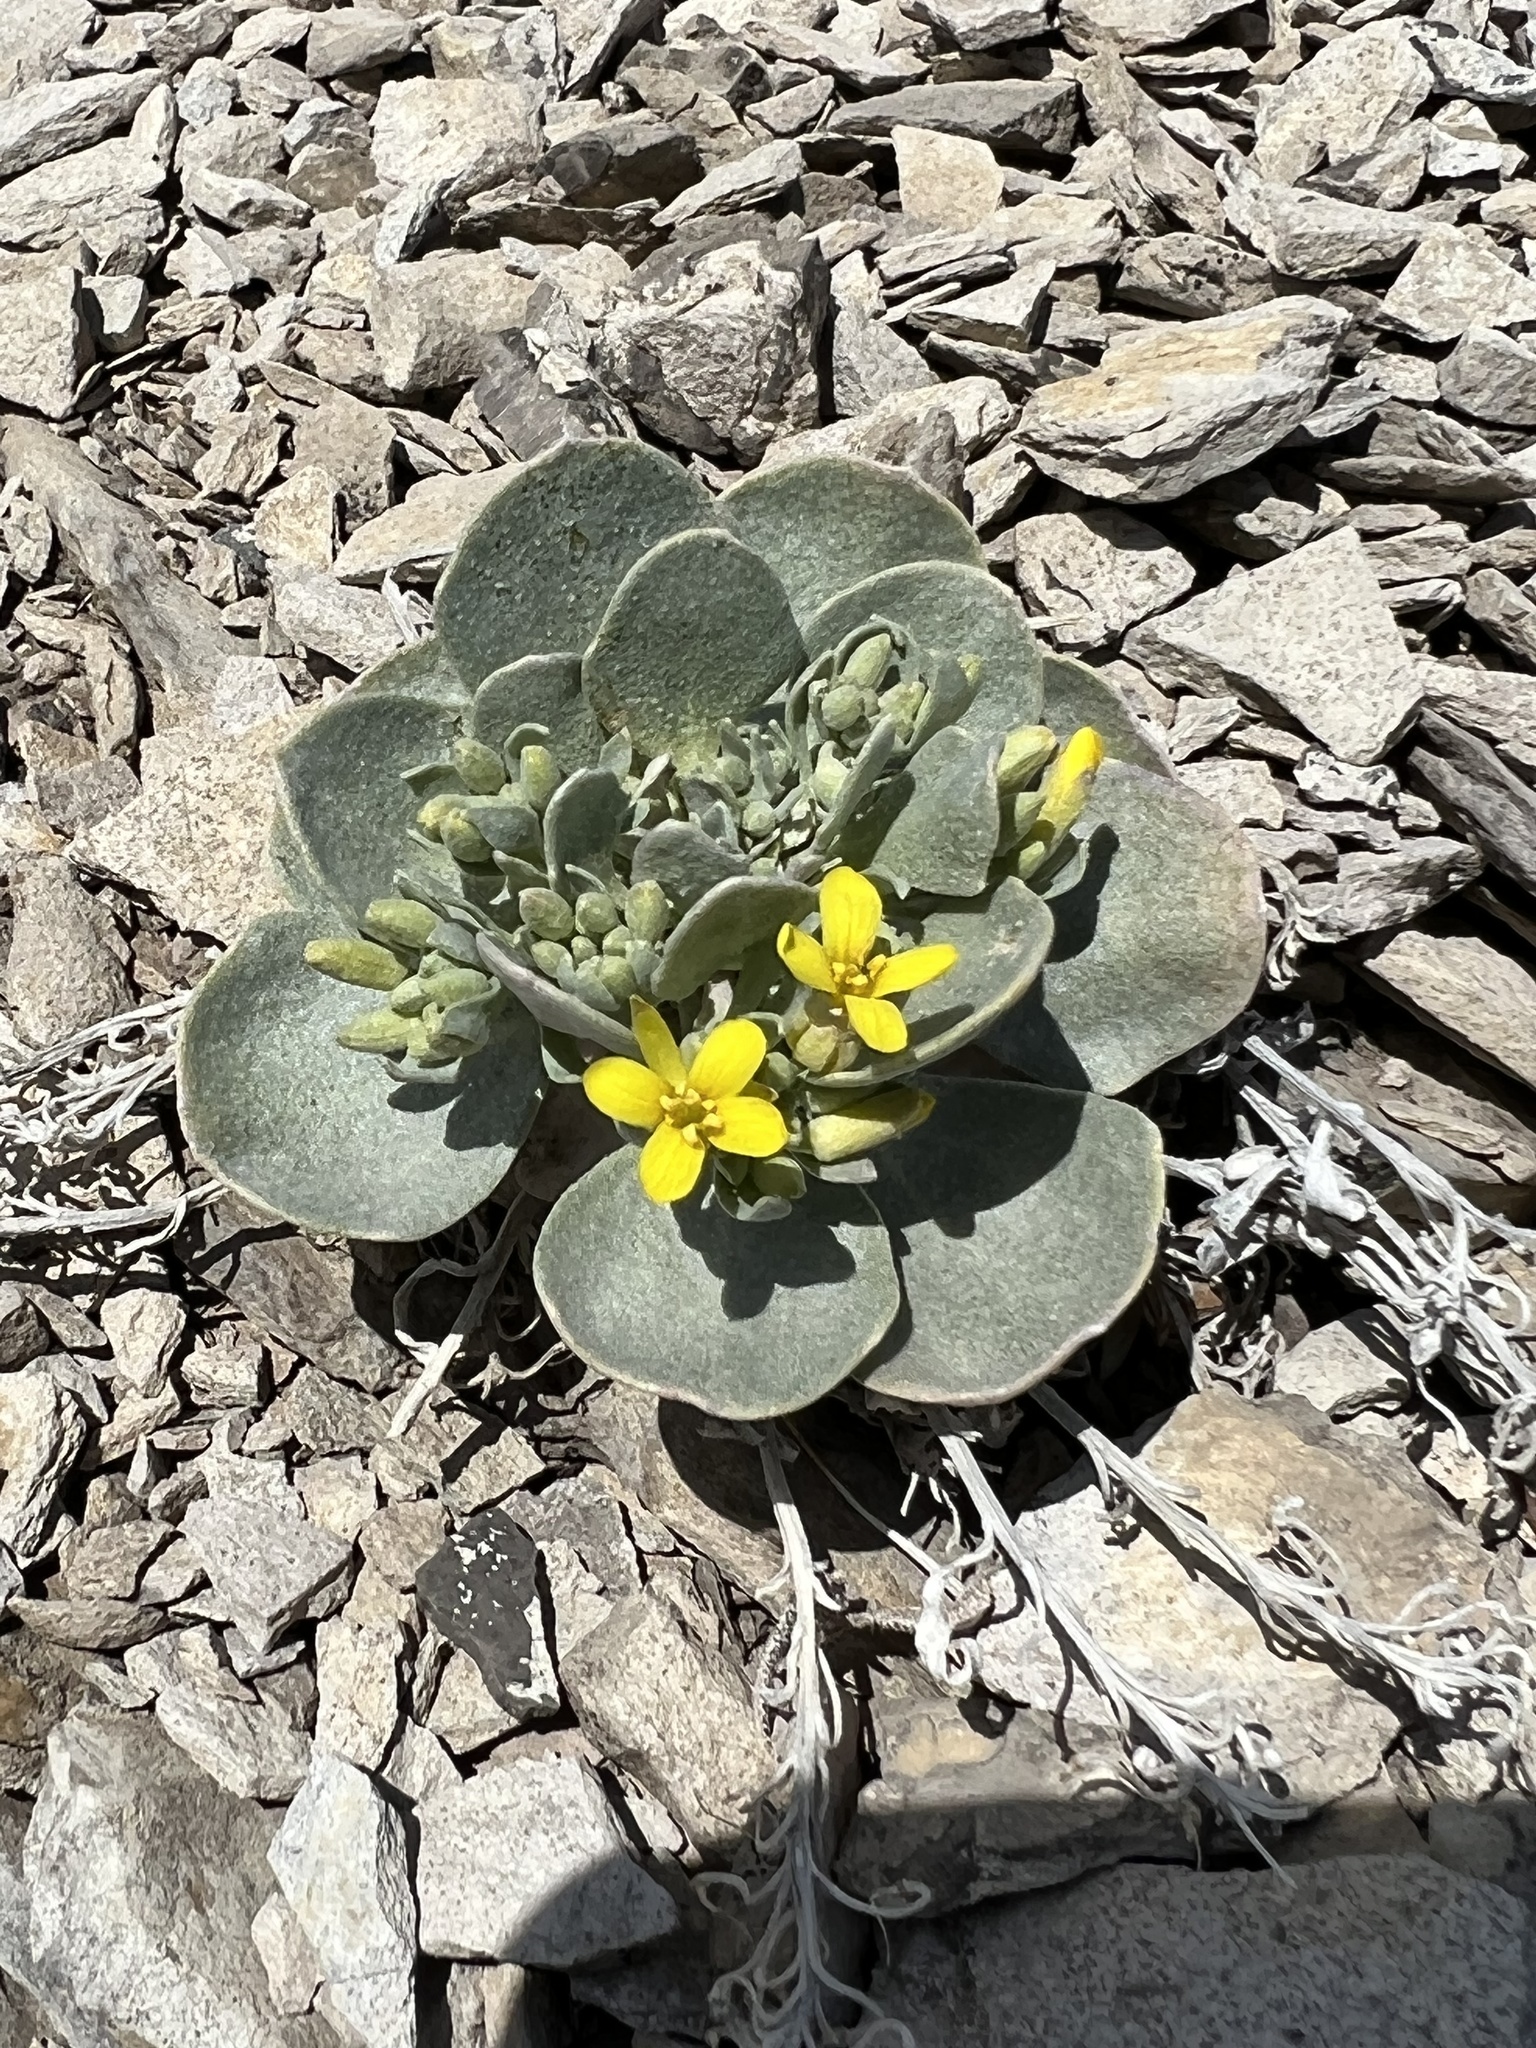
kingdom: Plantae
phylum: Tracheophyta
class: Magnoliopsida
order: Brassicales
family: Brassicaceae
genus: Physaria
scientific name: Physaria bellii
